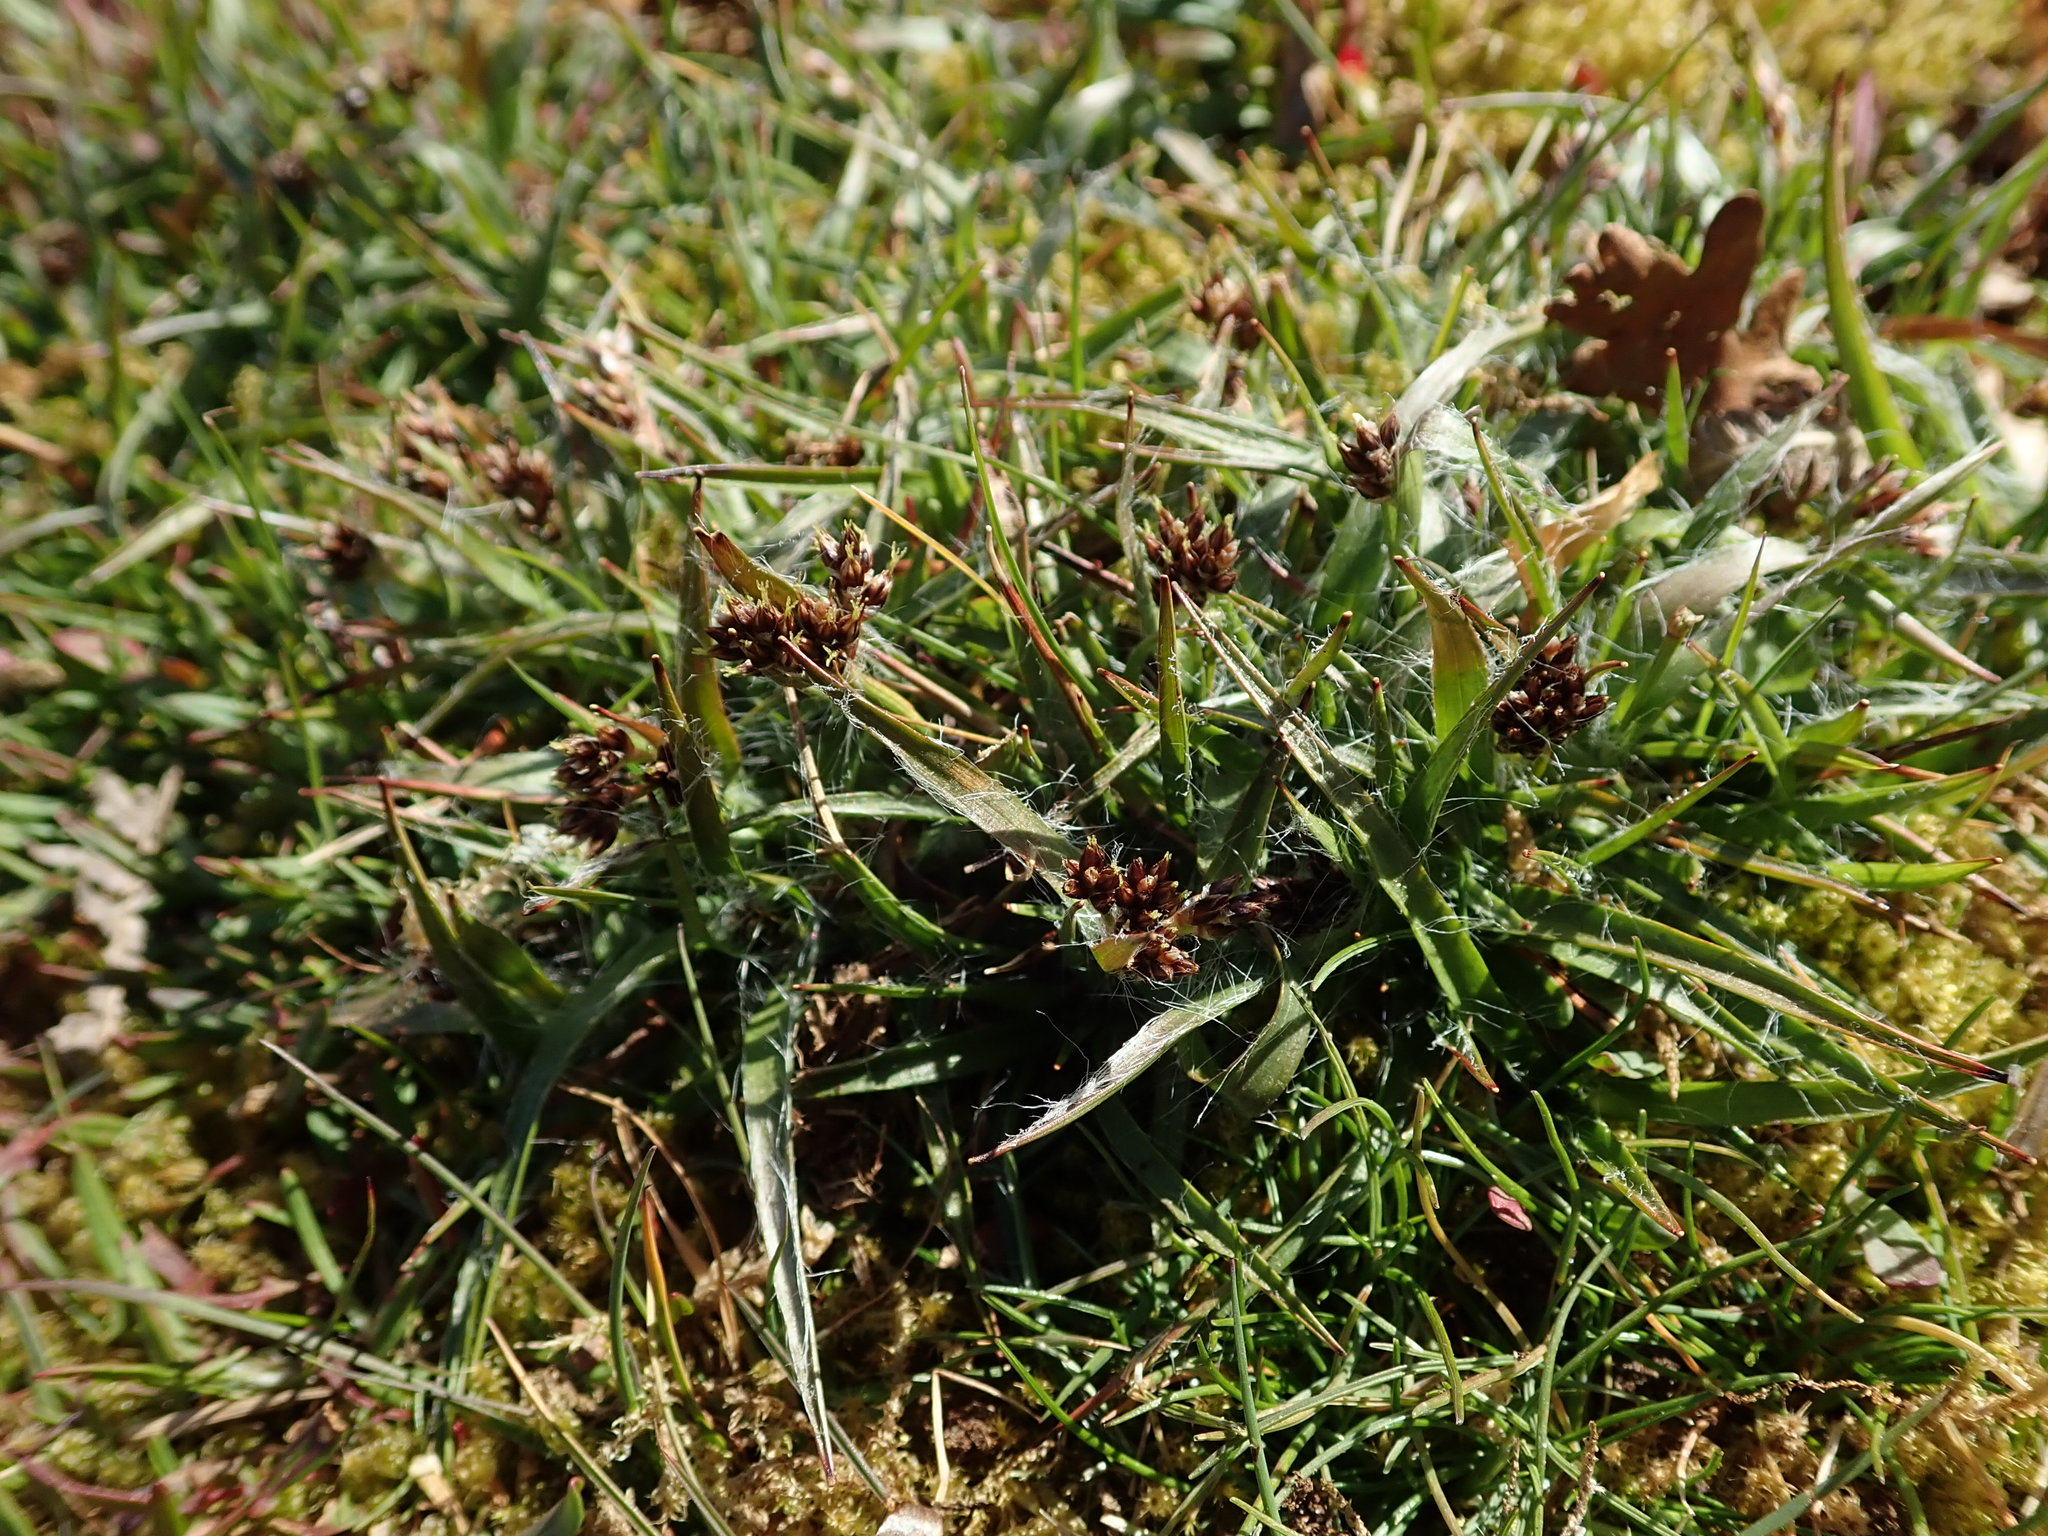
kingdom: Plantae
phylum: Tracheophyta
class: Liliopsida
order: Poales
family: Juncaceae
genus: Luzula
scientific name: Luzula campestris
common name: Field wood-rush
